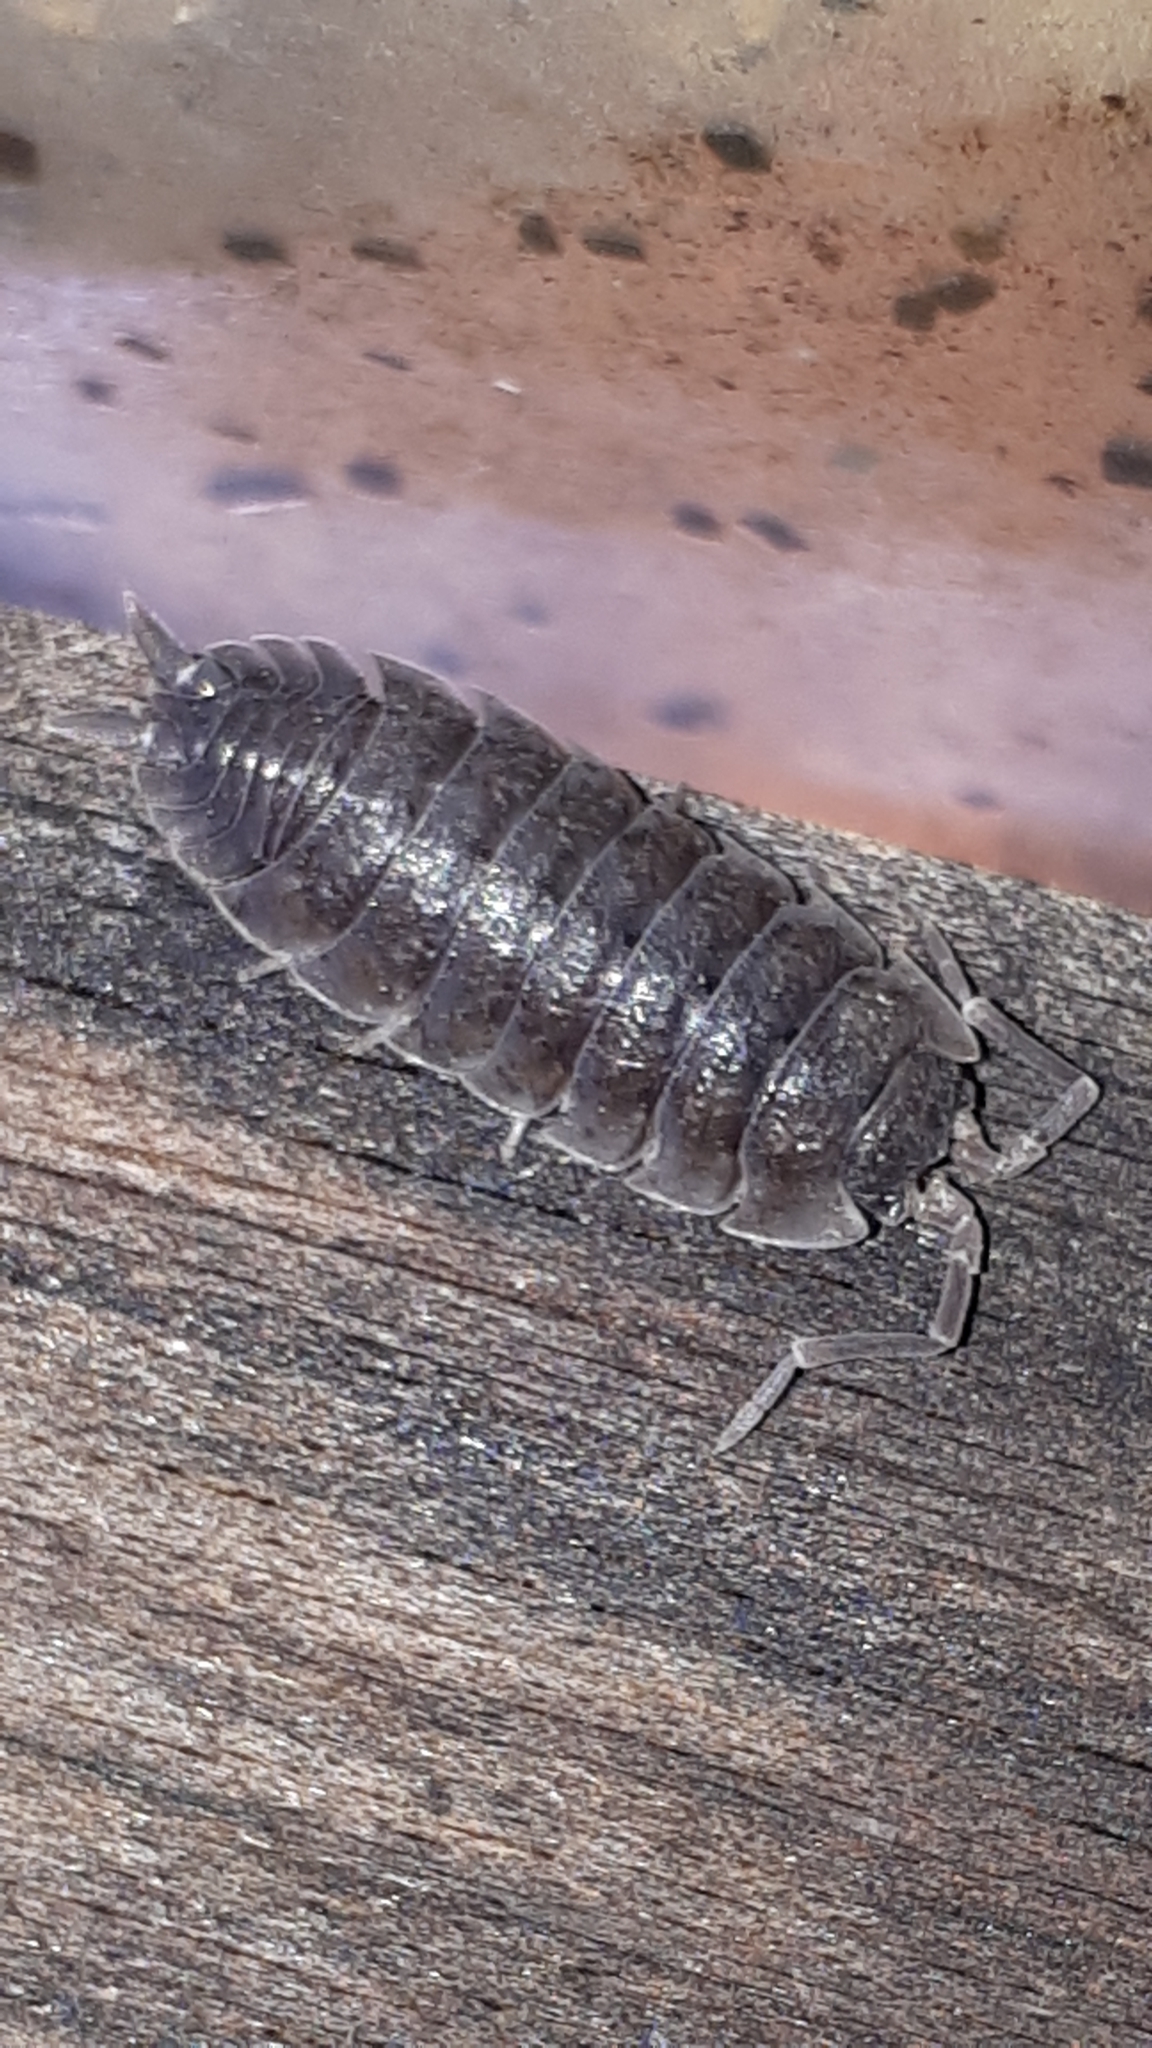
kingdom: Animalia
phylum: Arthropoda
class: Malacostraca
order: Isopoda
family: Porcellionidae
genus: Porcellio
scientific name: Porcellio scaber
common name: Common rough woodlouse
